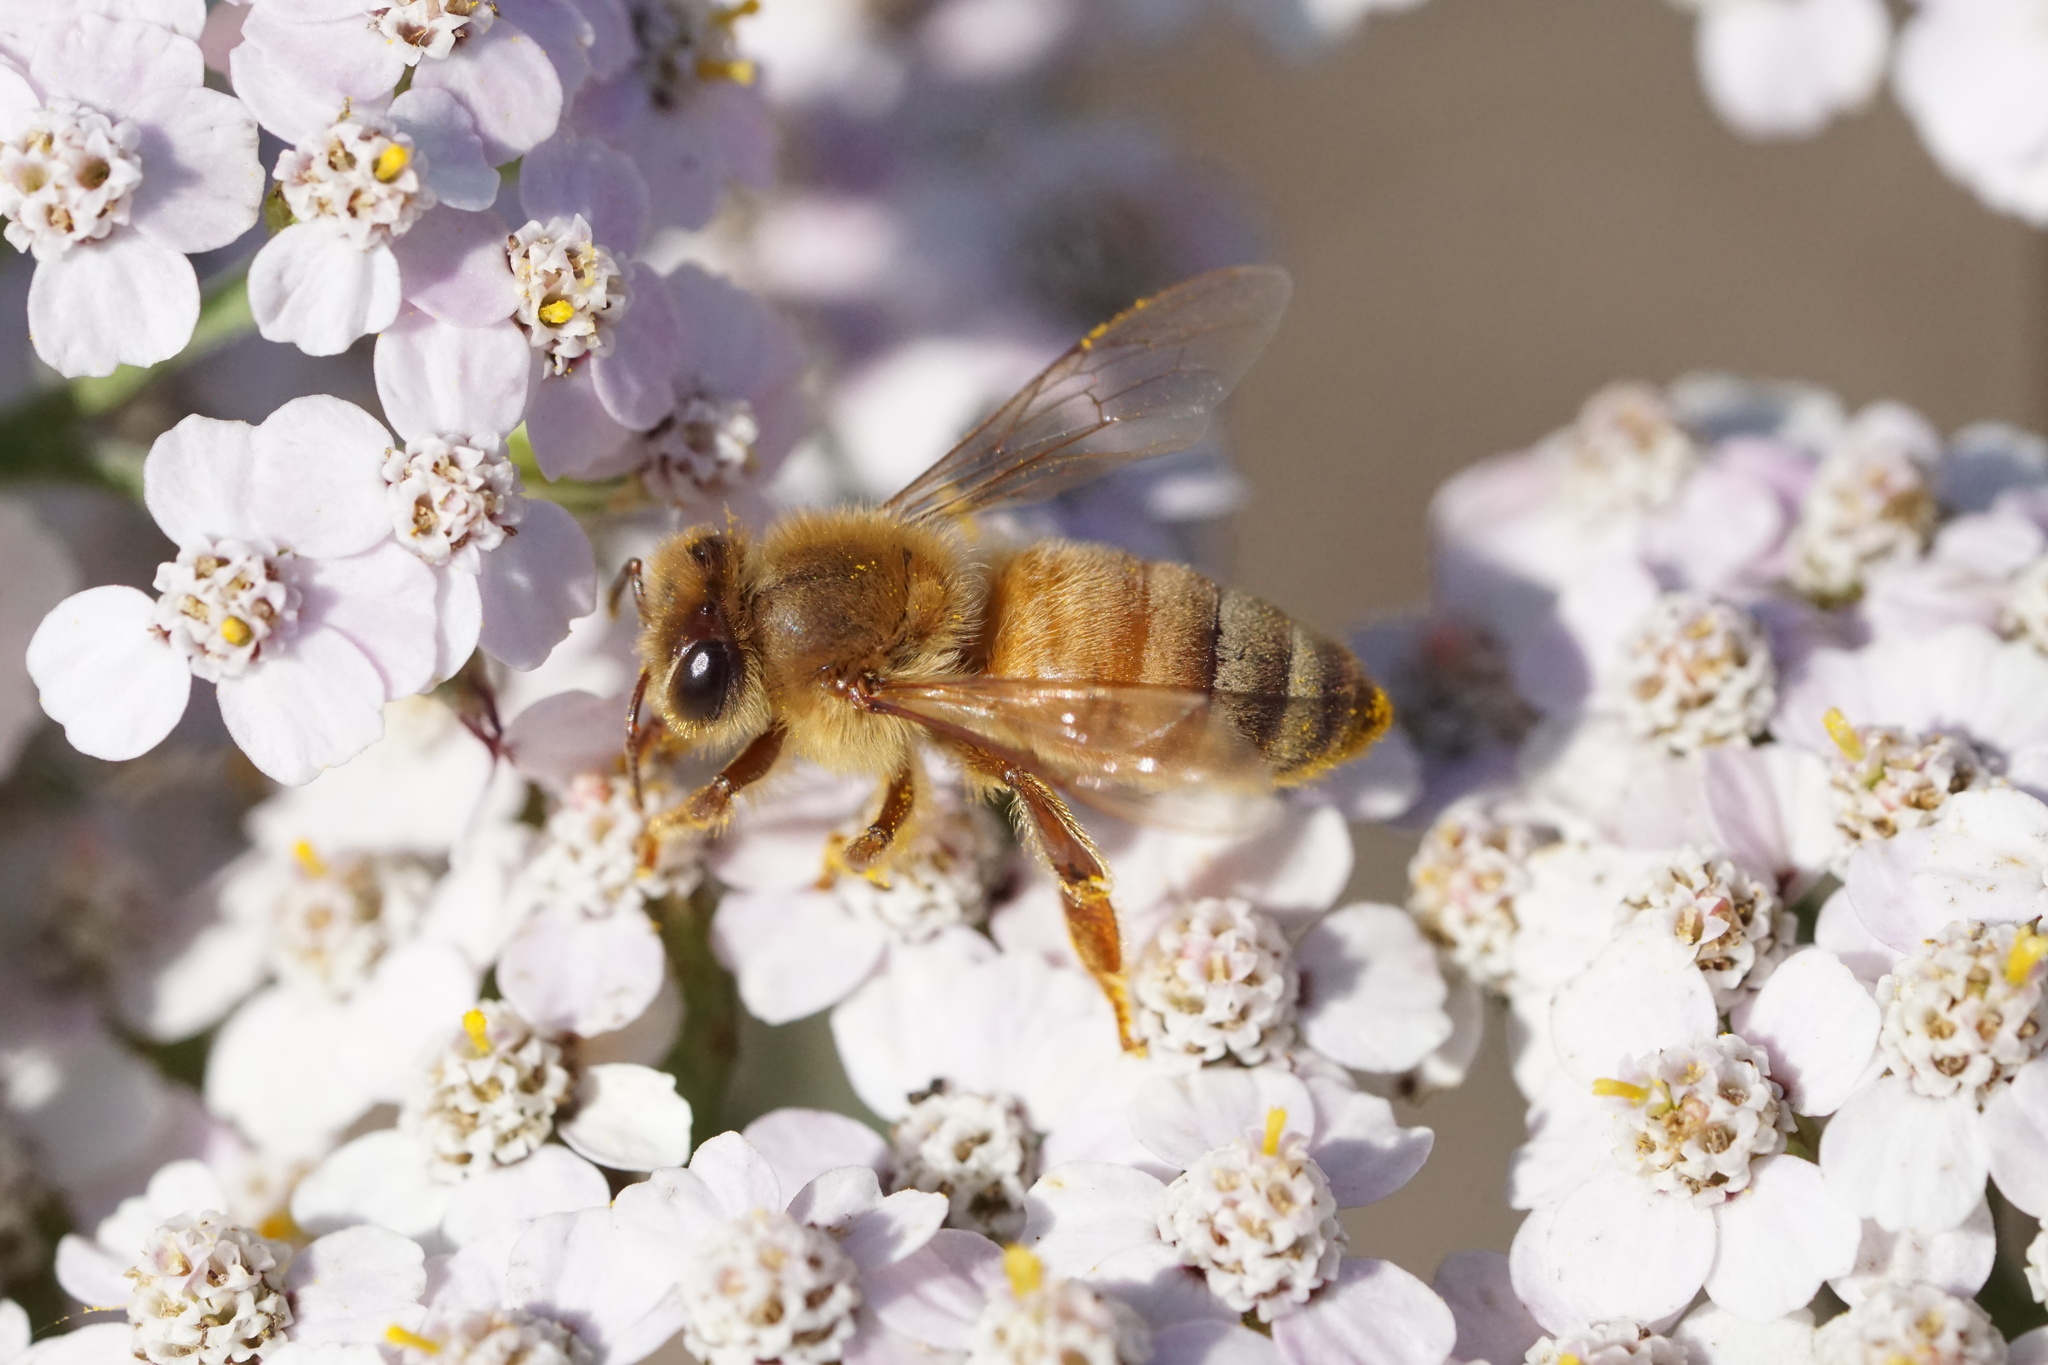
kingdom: Animalia
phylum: Arthropoda
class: Insecta
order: Hymenoptera
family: Apidae
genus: Apis
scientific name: Apis mellifera
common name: Honey bee
